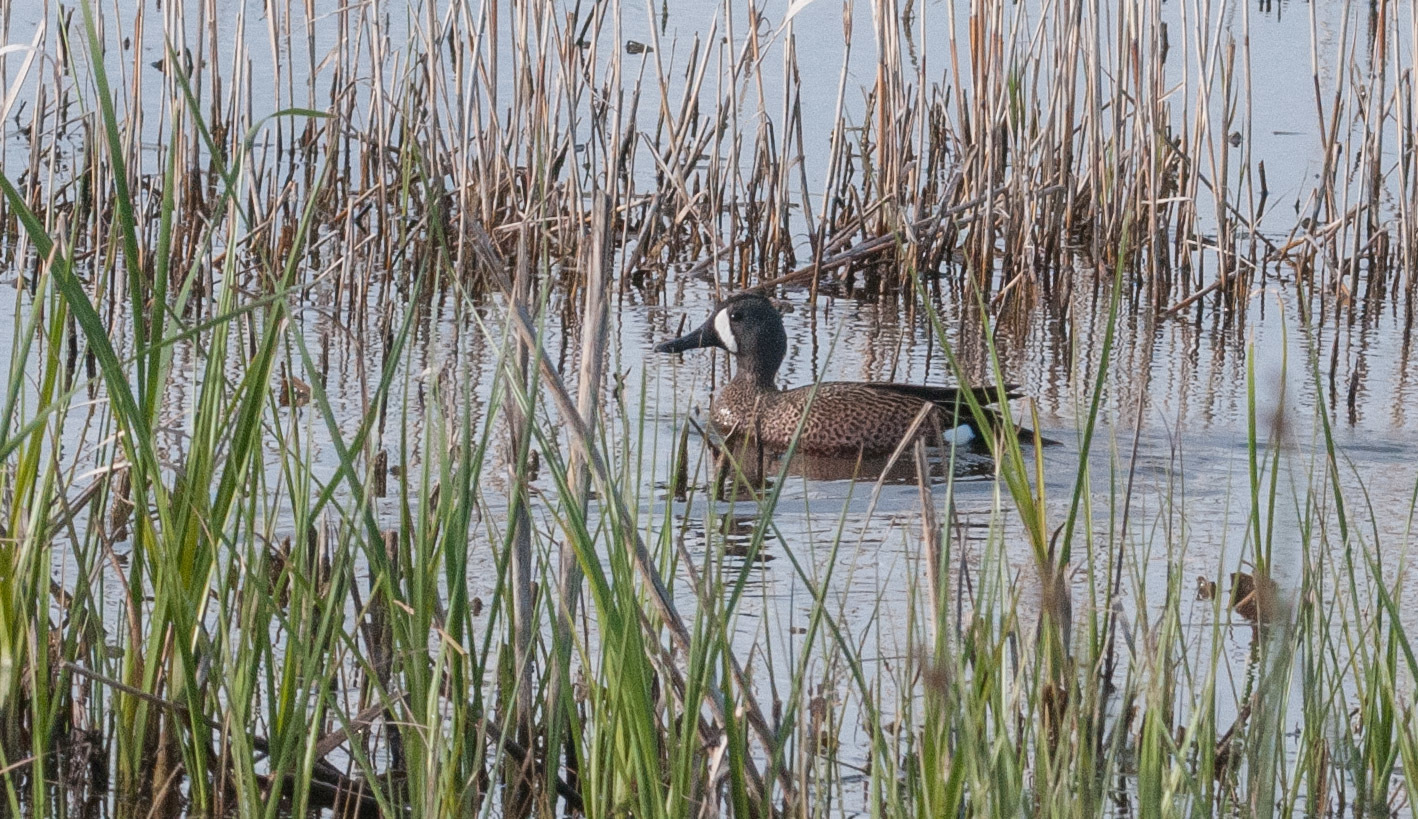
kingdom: Animalia
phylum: Chordata
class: Aves
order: Anseriformes
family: Anatidae
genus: Spatula
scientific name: Spatula discors
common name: Blue-winged teal
